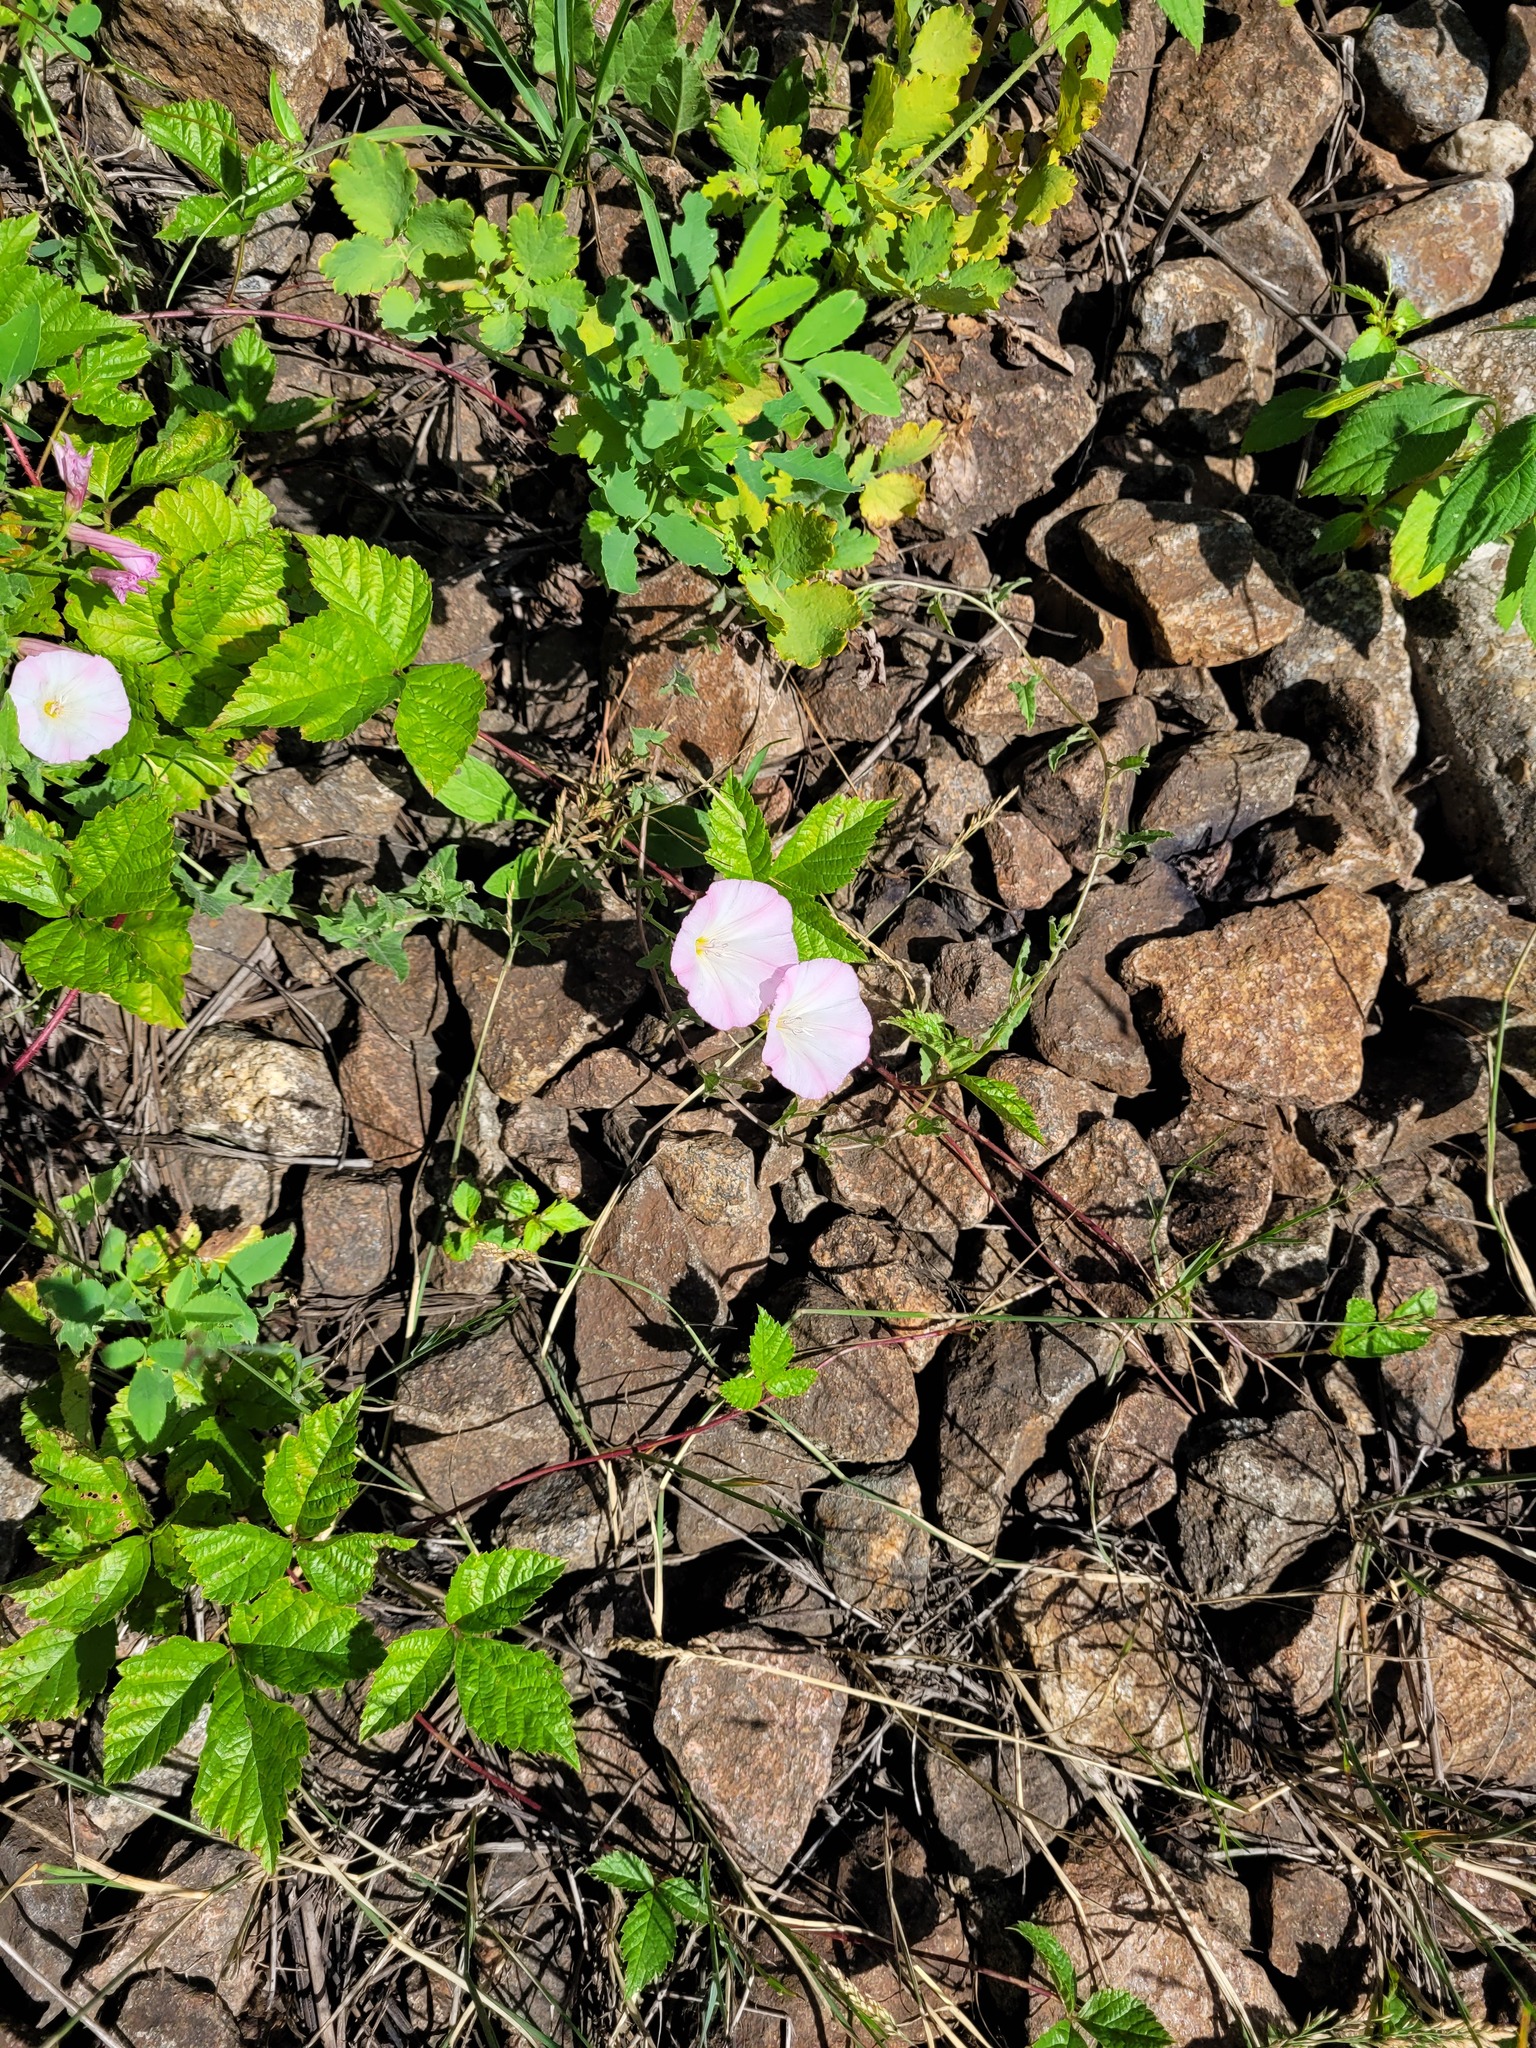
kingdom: Plantae
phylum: Tracheophyta
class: Magnoliopsida
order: Solanales
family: Convolvulaceae
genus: Convolvulus
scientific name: Convolvulus arvensis
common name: Field bindweed
